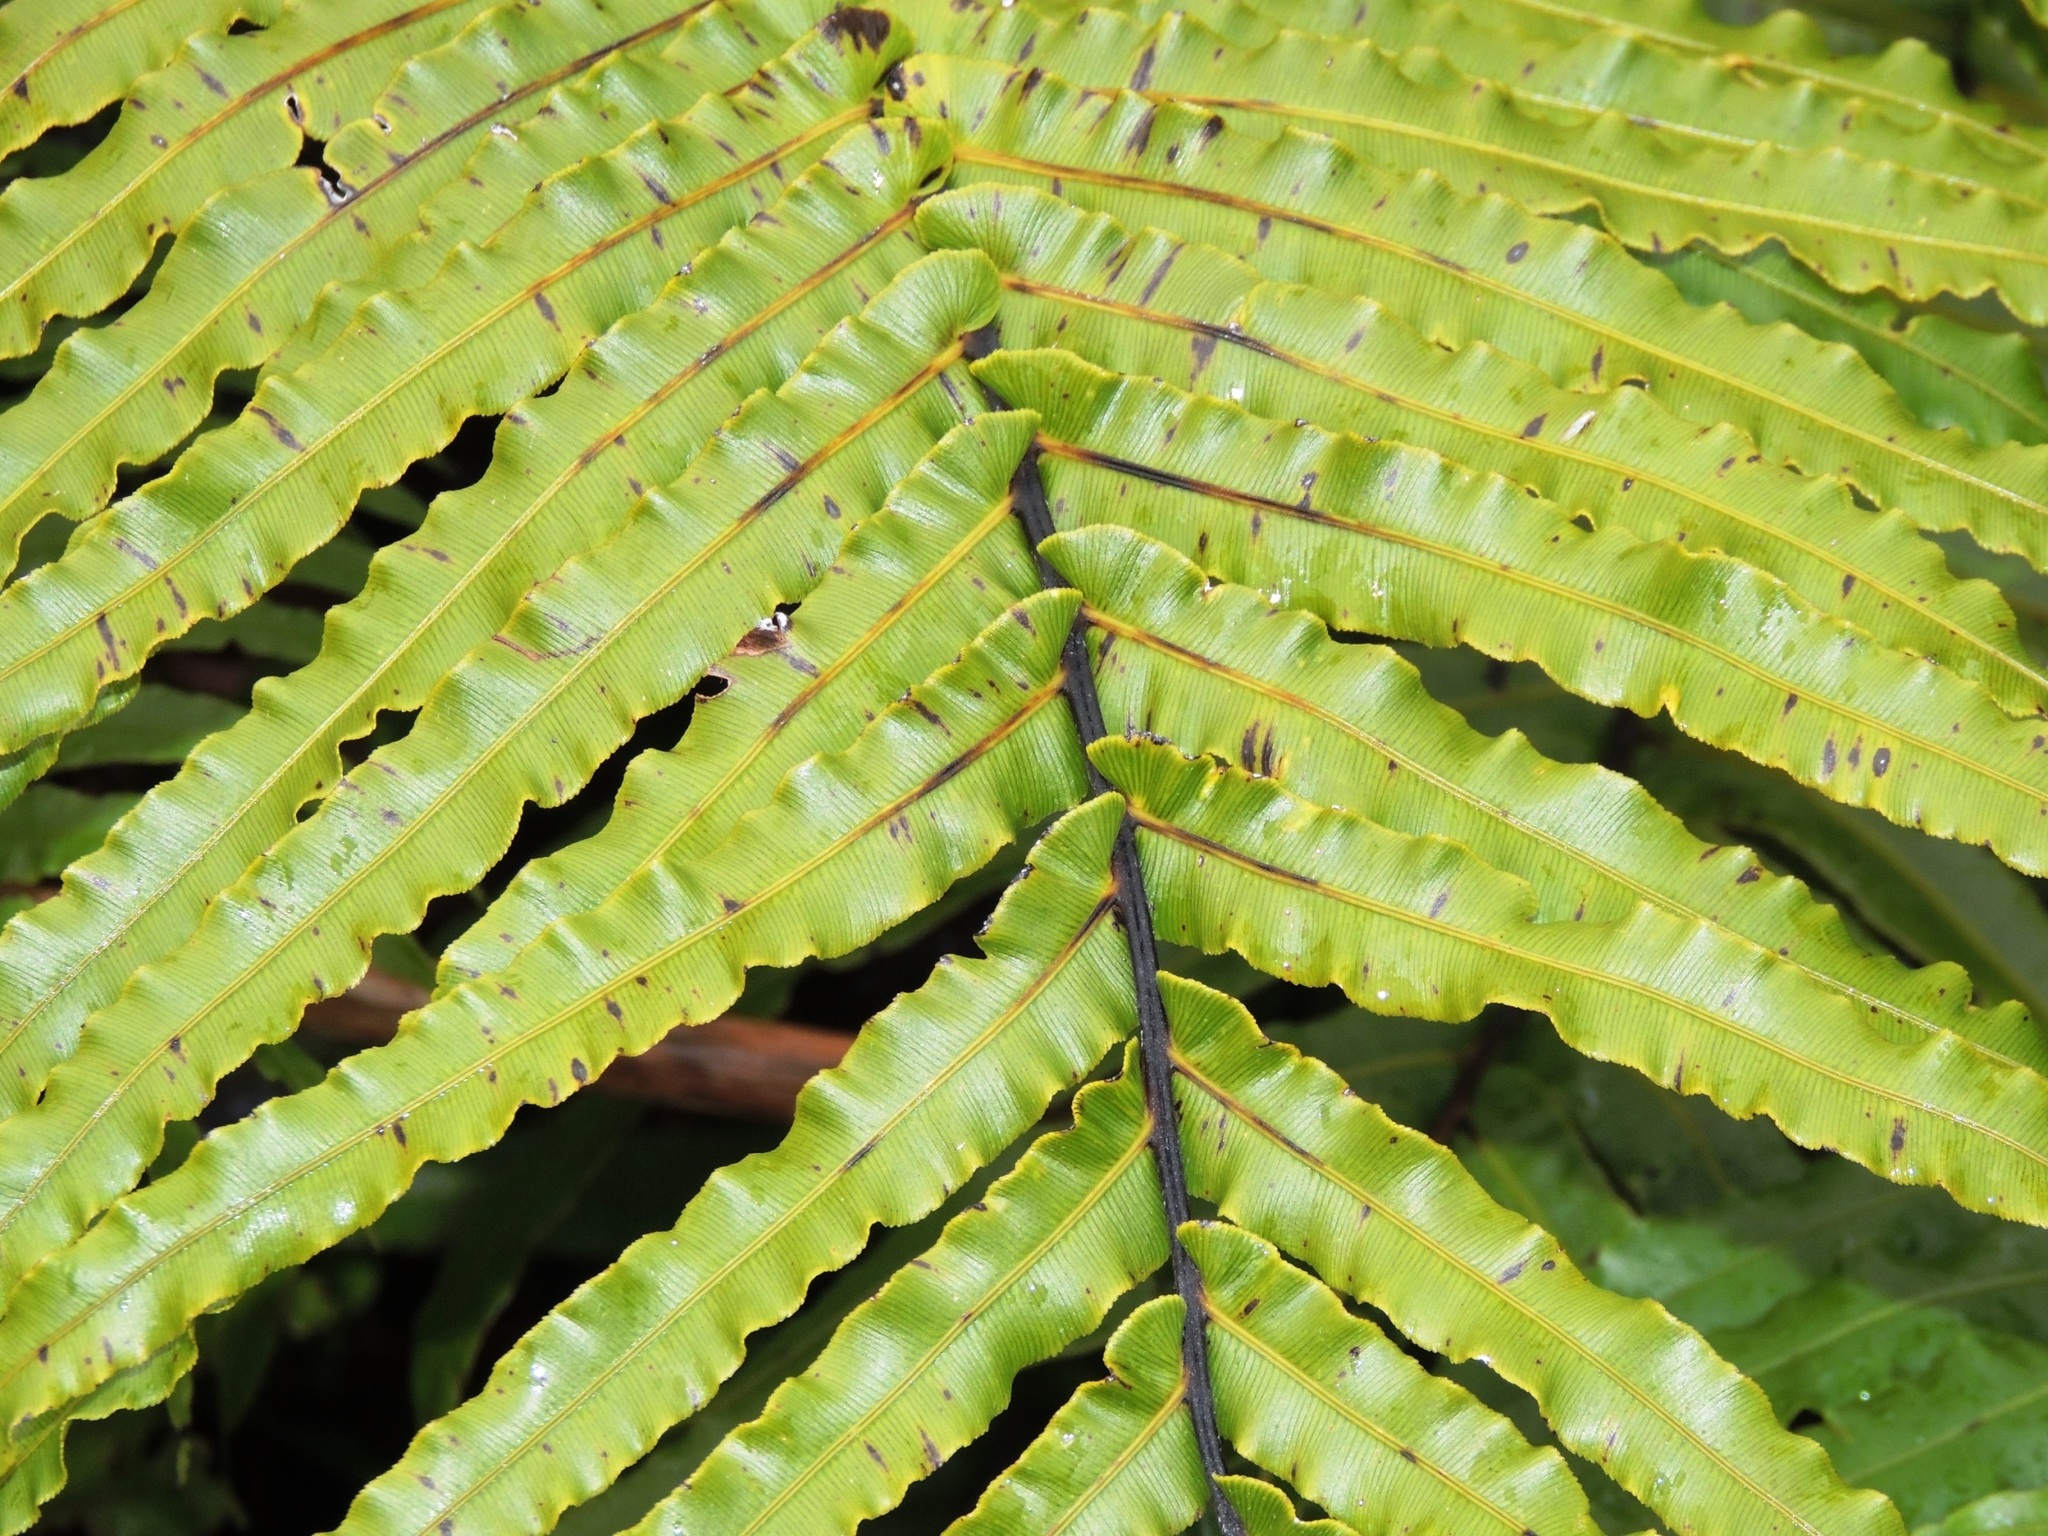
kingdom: Plantae
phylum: Tracheophyta
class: Polypodiopsida
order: Polypodiales
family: Blechnaceae
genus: Parablechnum
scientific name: Parablechnum novae-zelandiae
